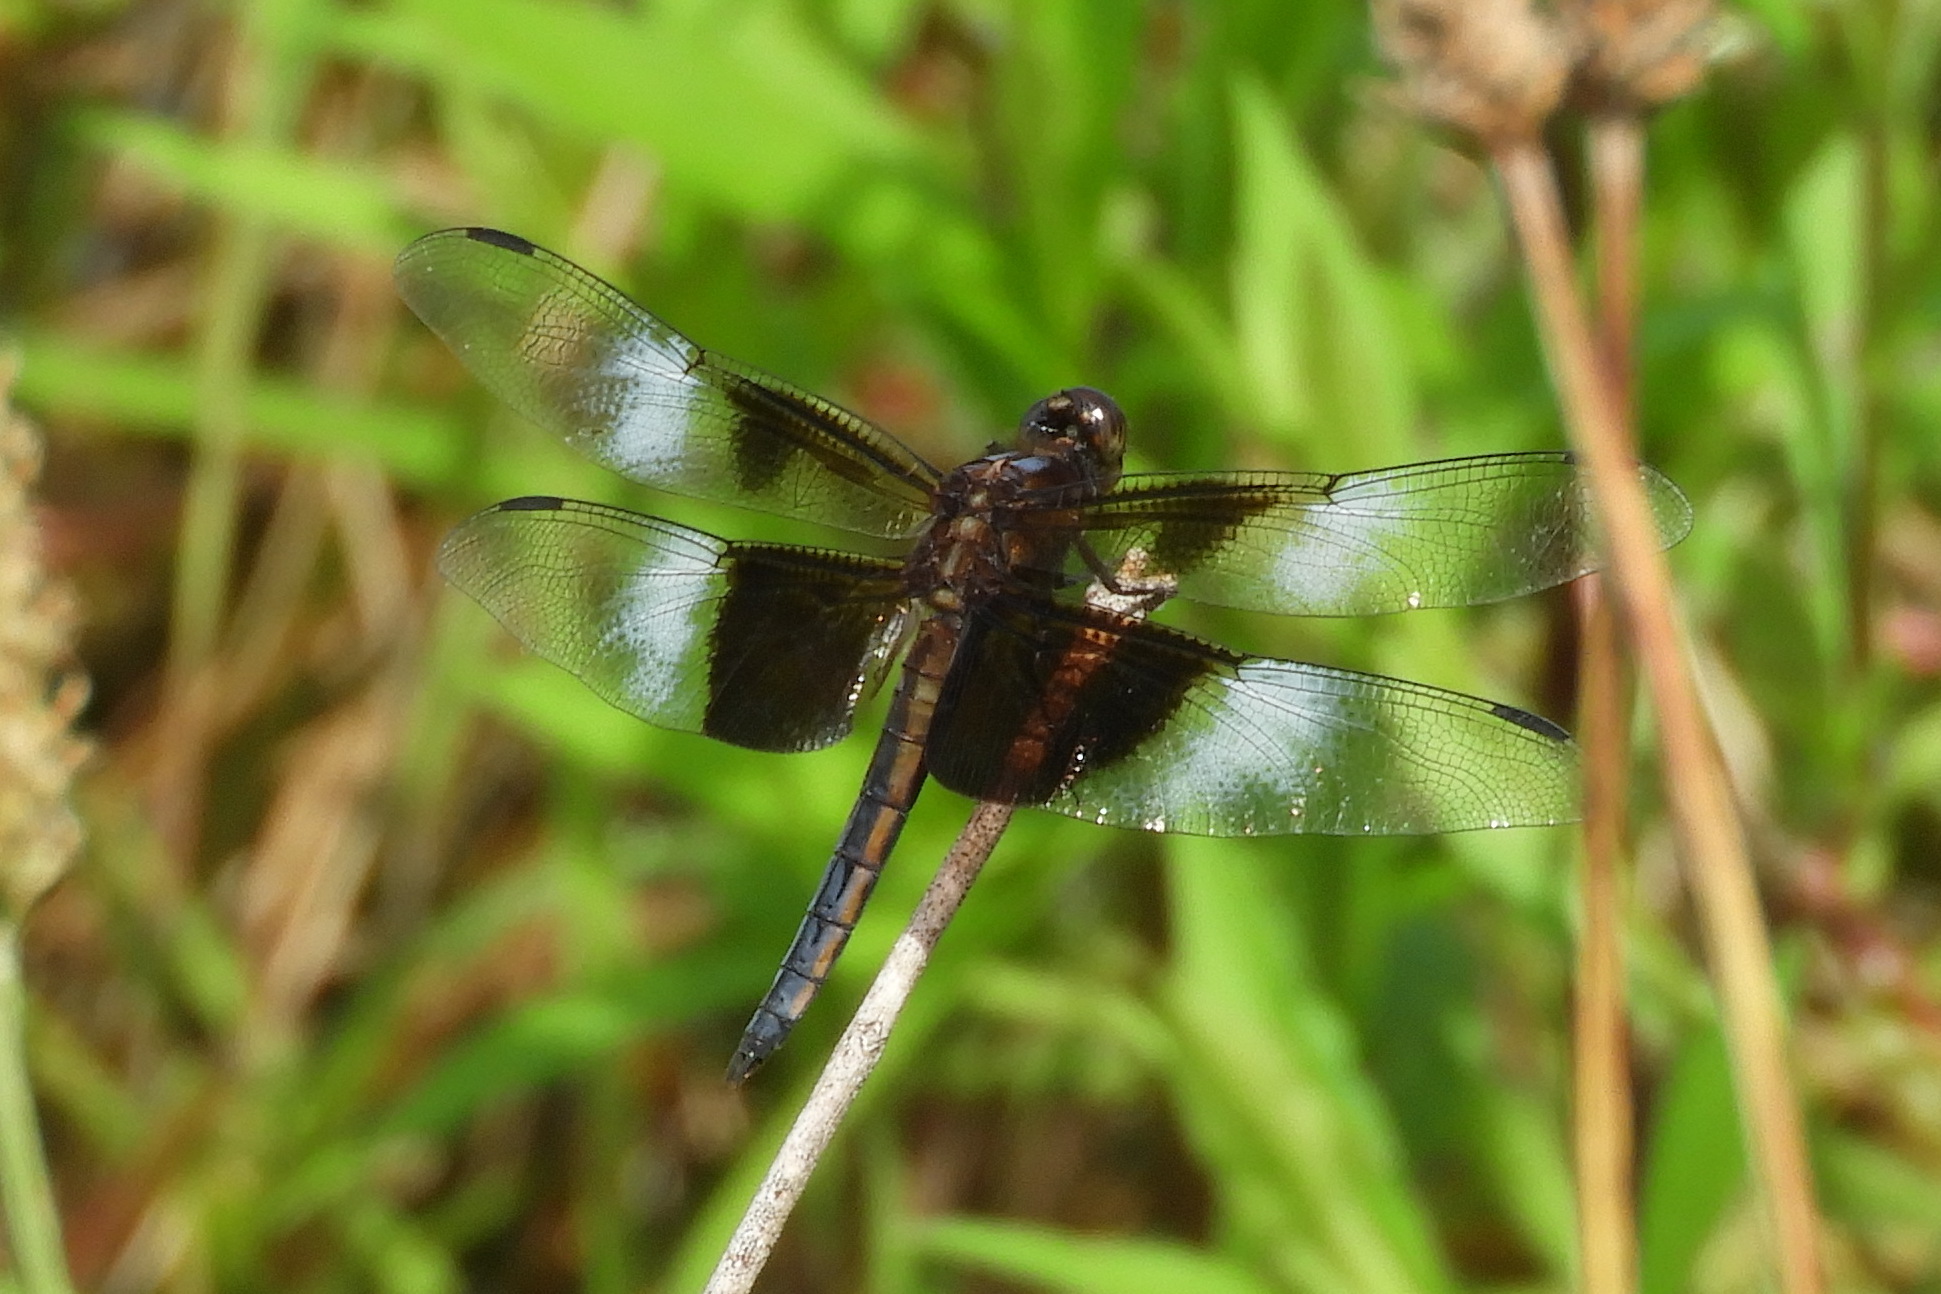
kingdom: Animalia
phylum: Arthropoda
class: Insecta
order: Odonata
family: Libellulidae
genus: Libellula
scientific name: Libellula luctuosa
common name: Widow skimmer
